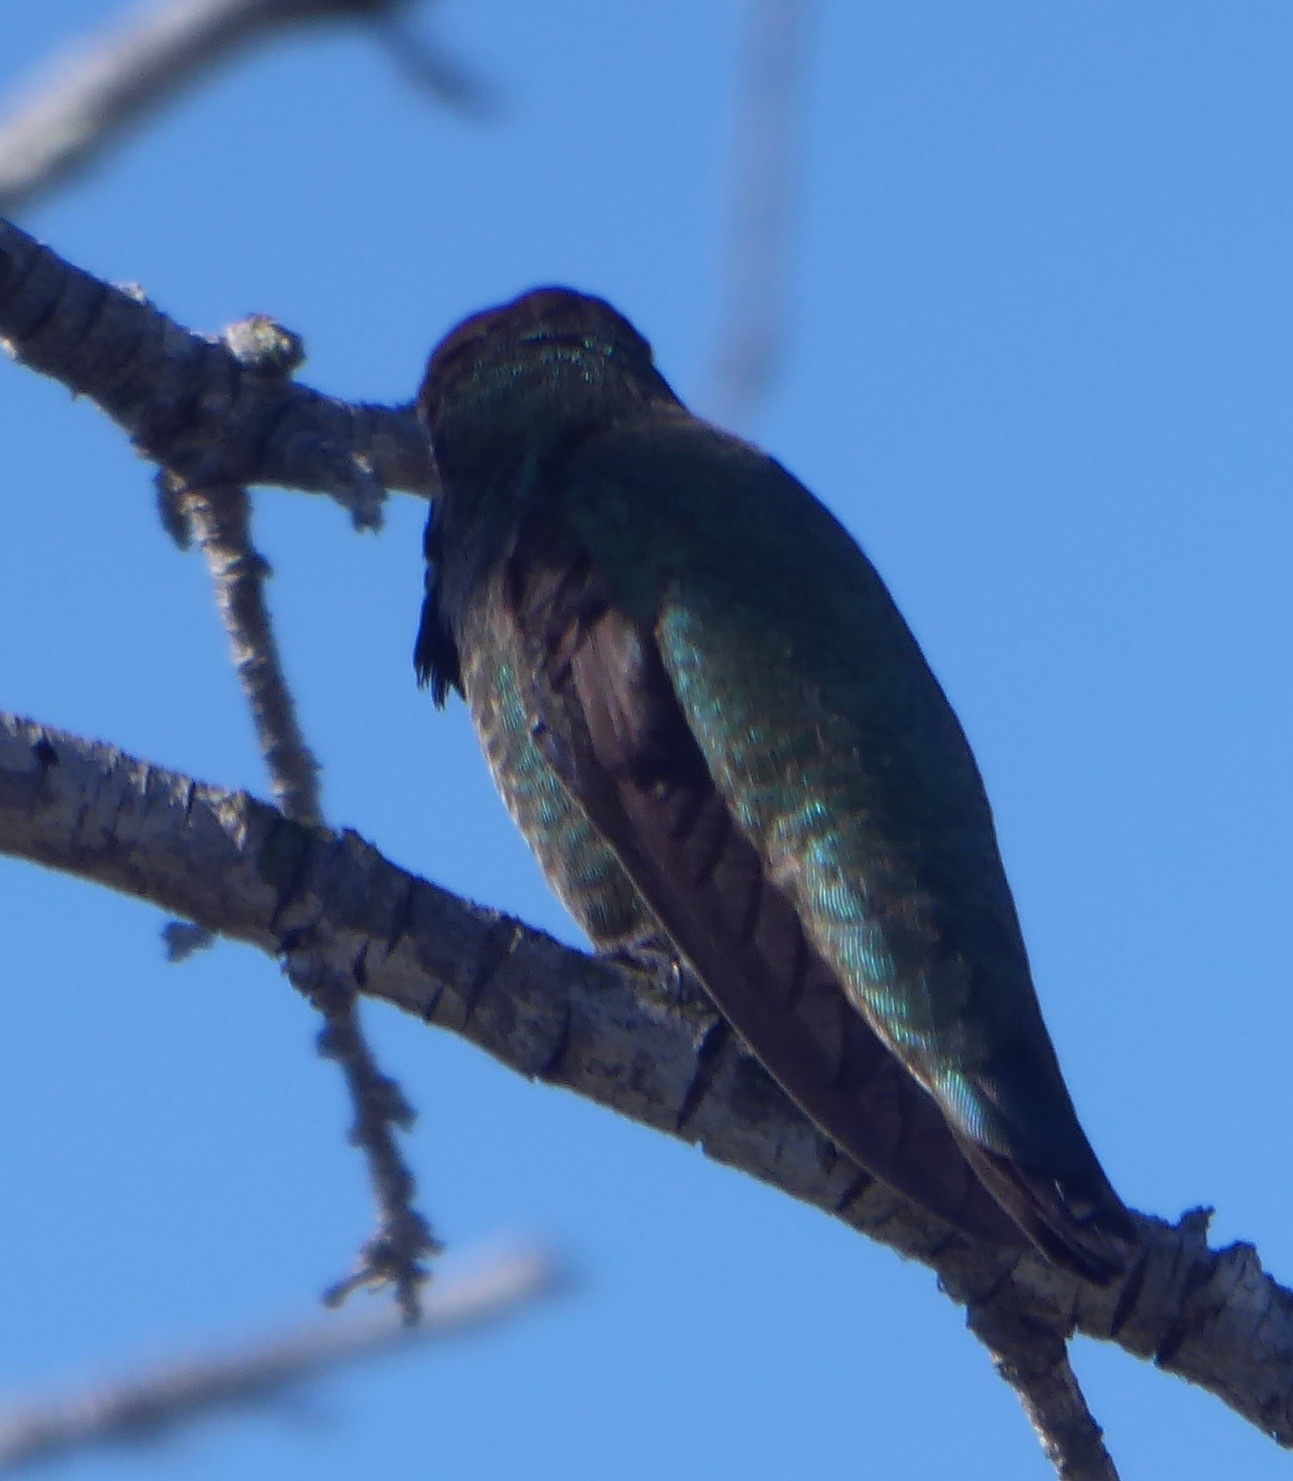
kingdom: Animalia
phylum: Chordata
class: Aves
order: Apodiformes
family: Trochilidae
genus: Calypte
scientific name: Calypte anna
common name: Anna's hummingbird
